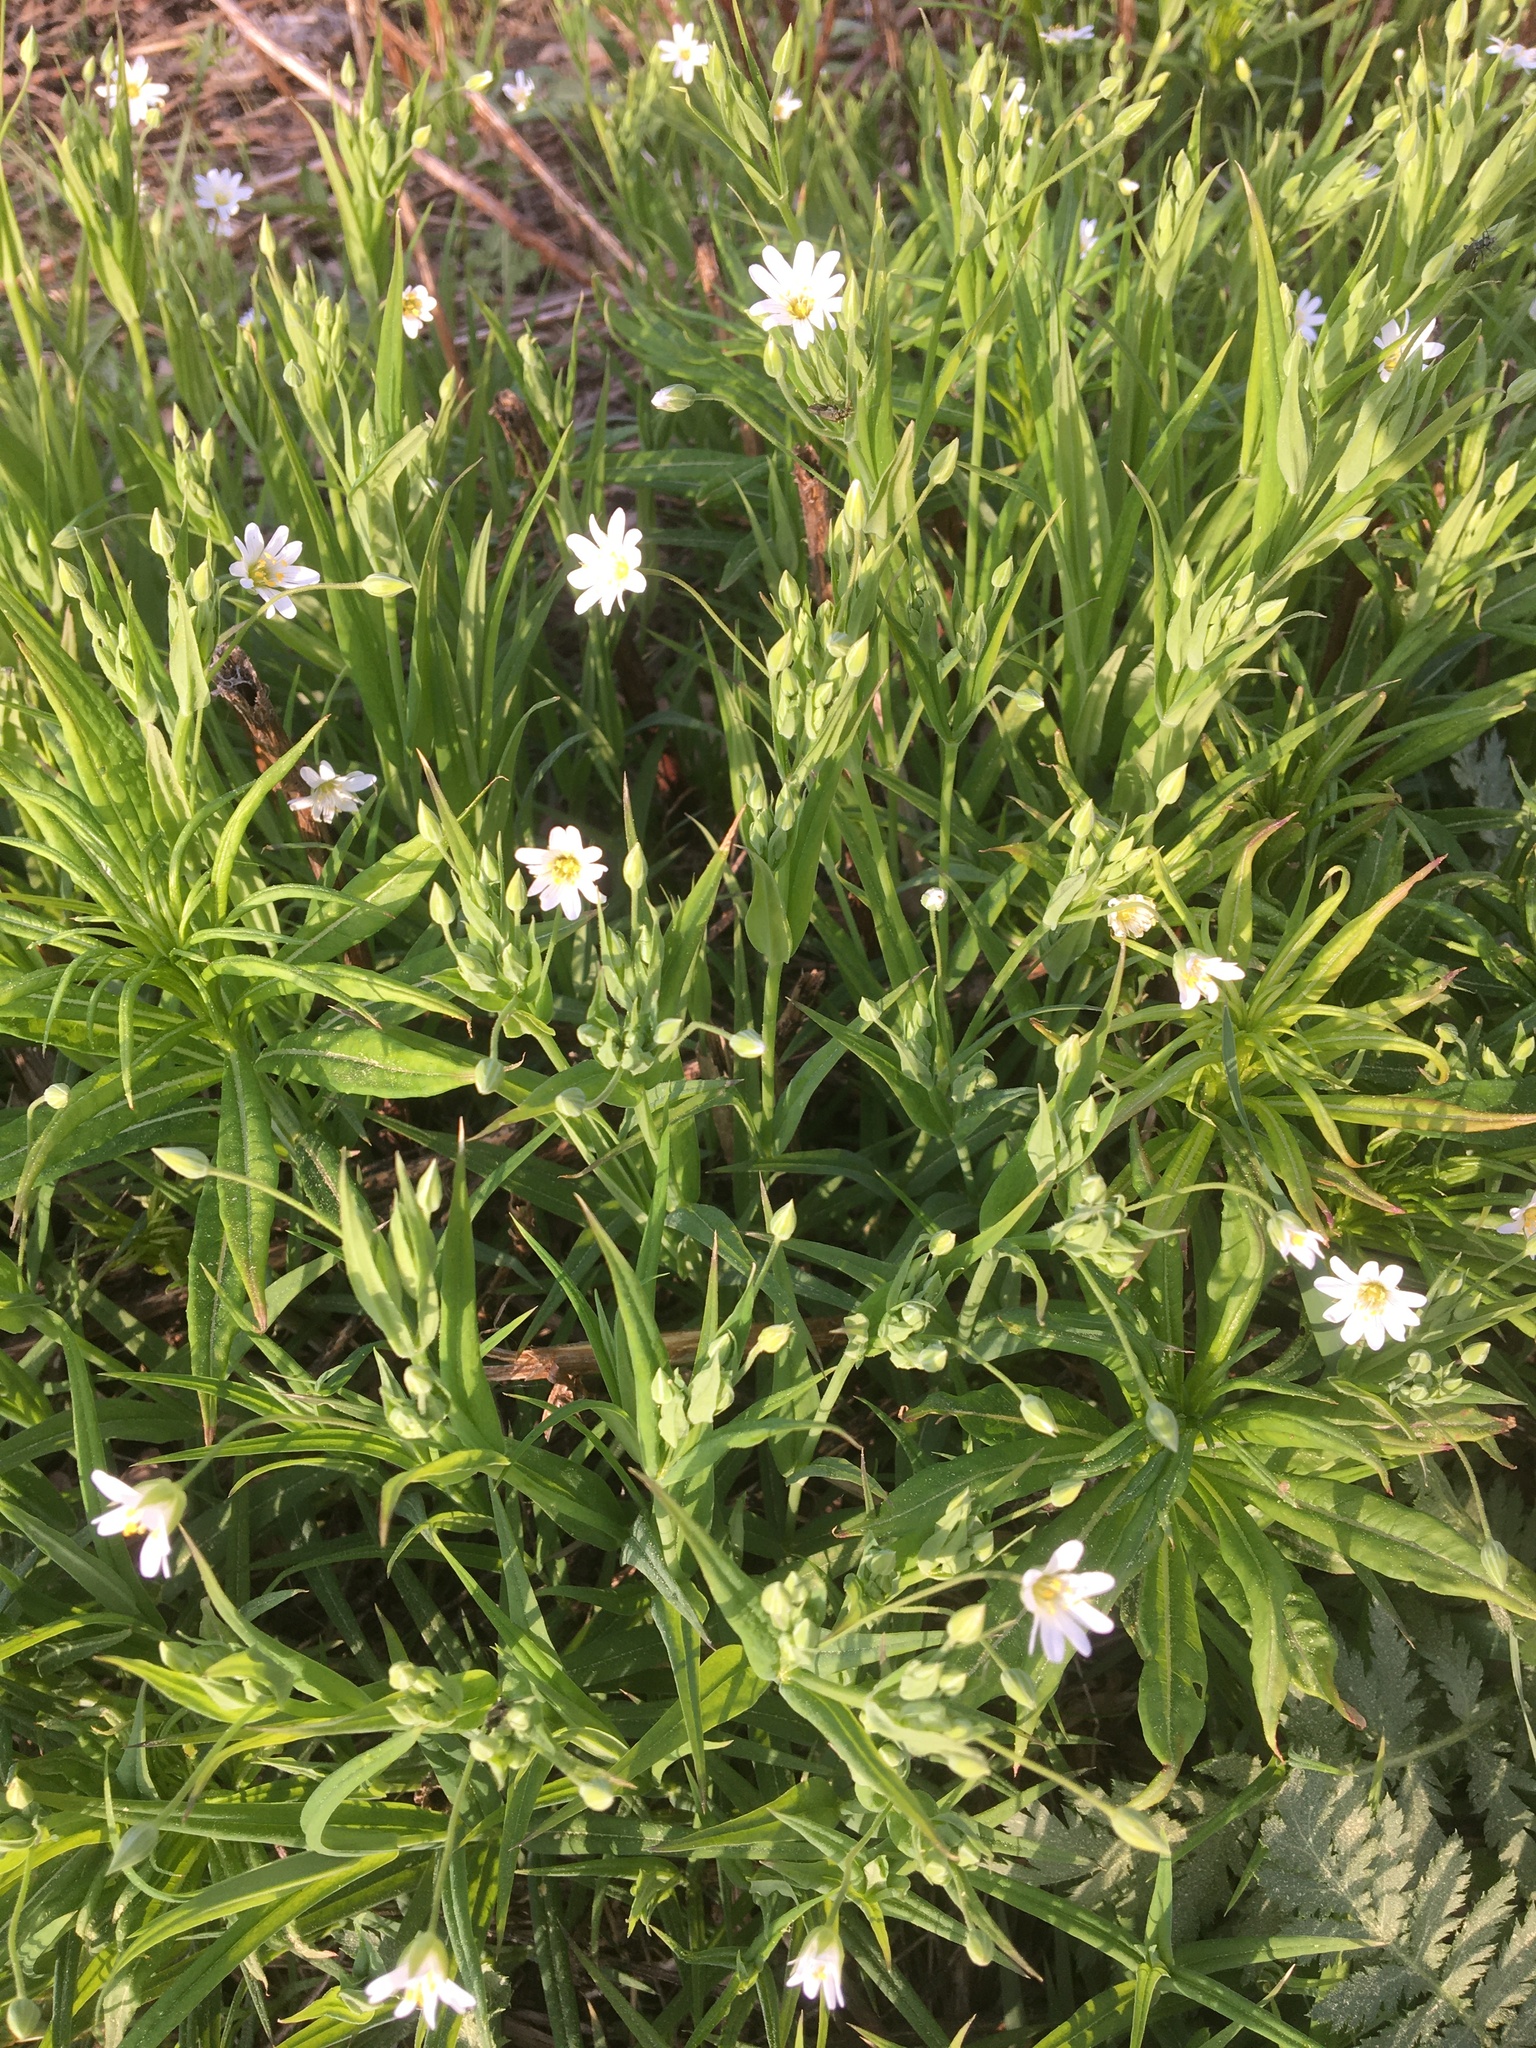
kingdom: Plantae
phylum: Tracheophyta
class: Magnoliopsida
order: Caryophyllales
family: Caryophyllaceae
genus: Rabelera
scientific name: Rabelera holostea
